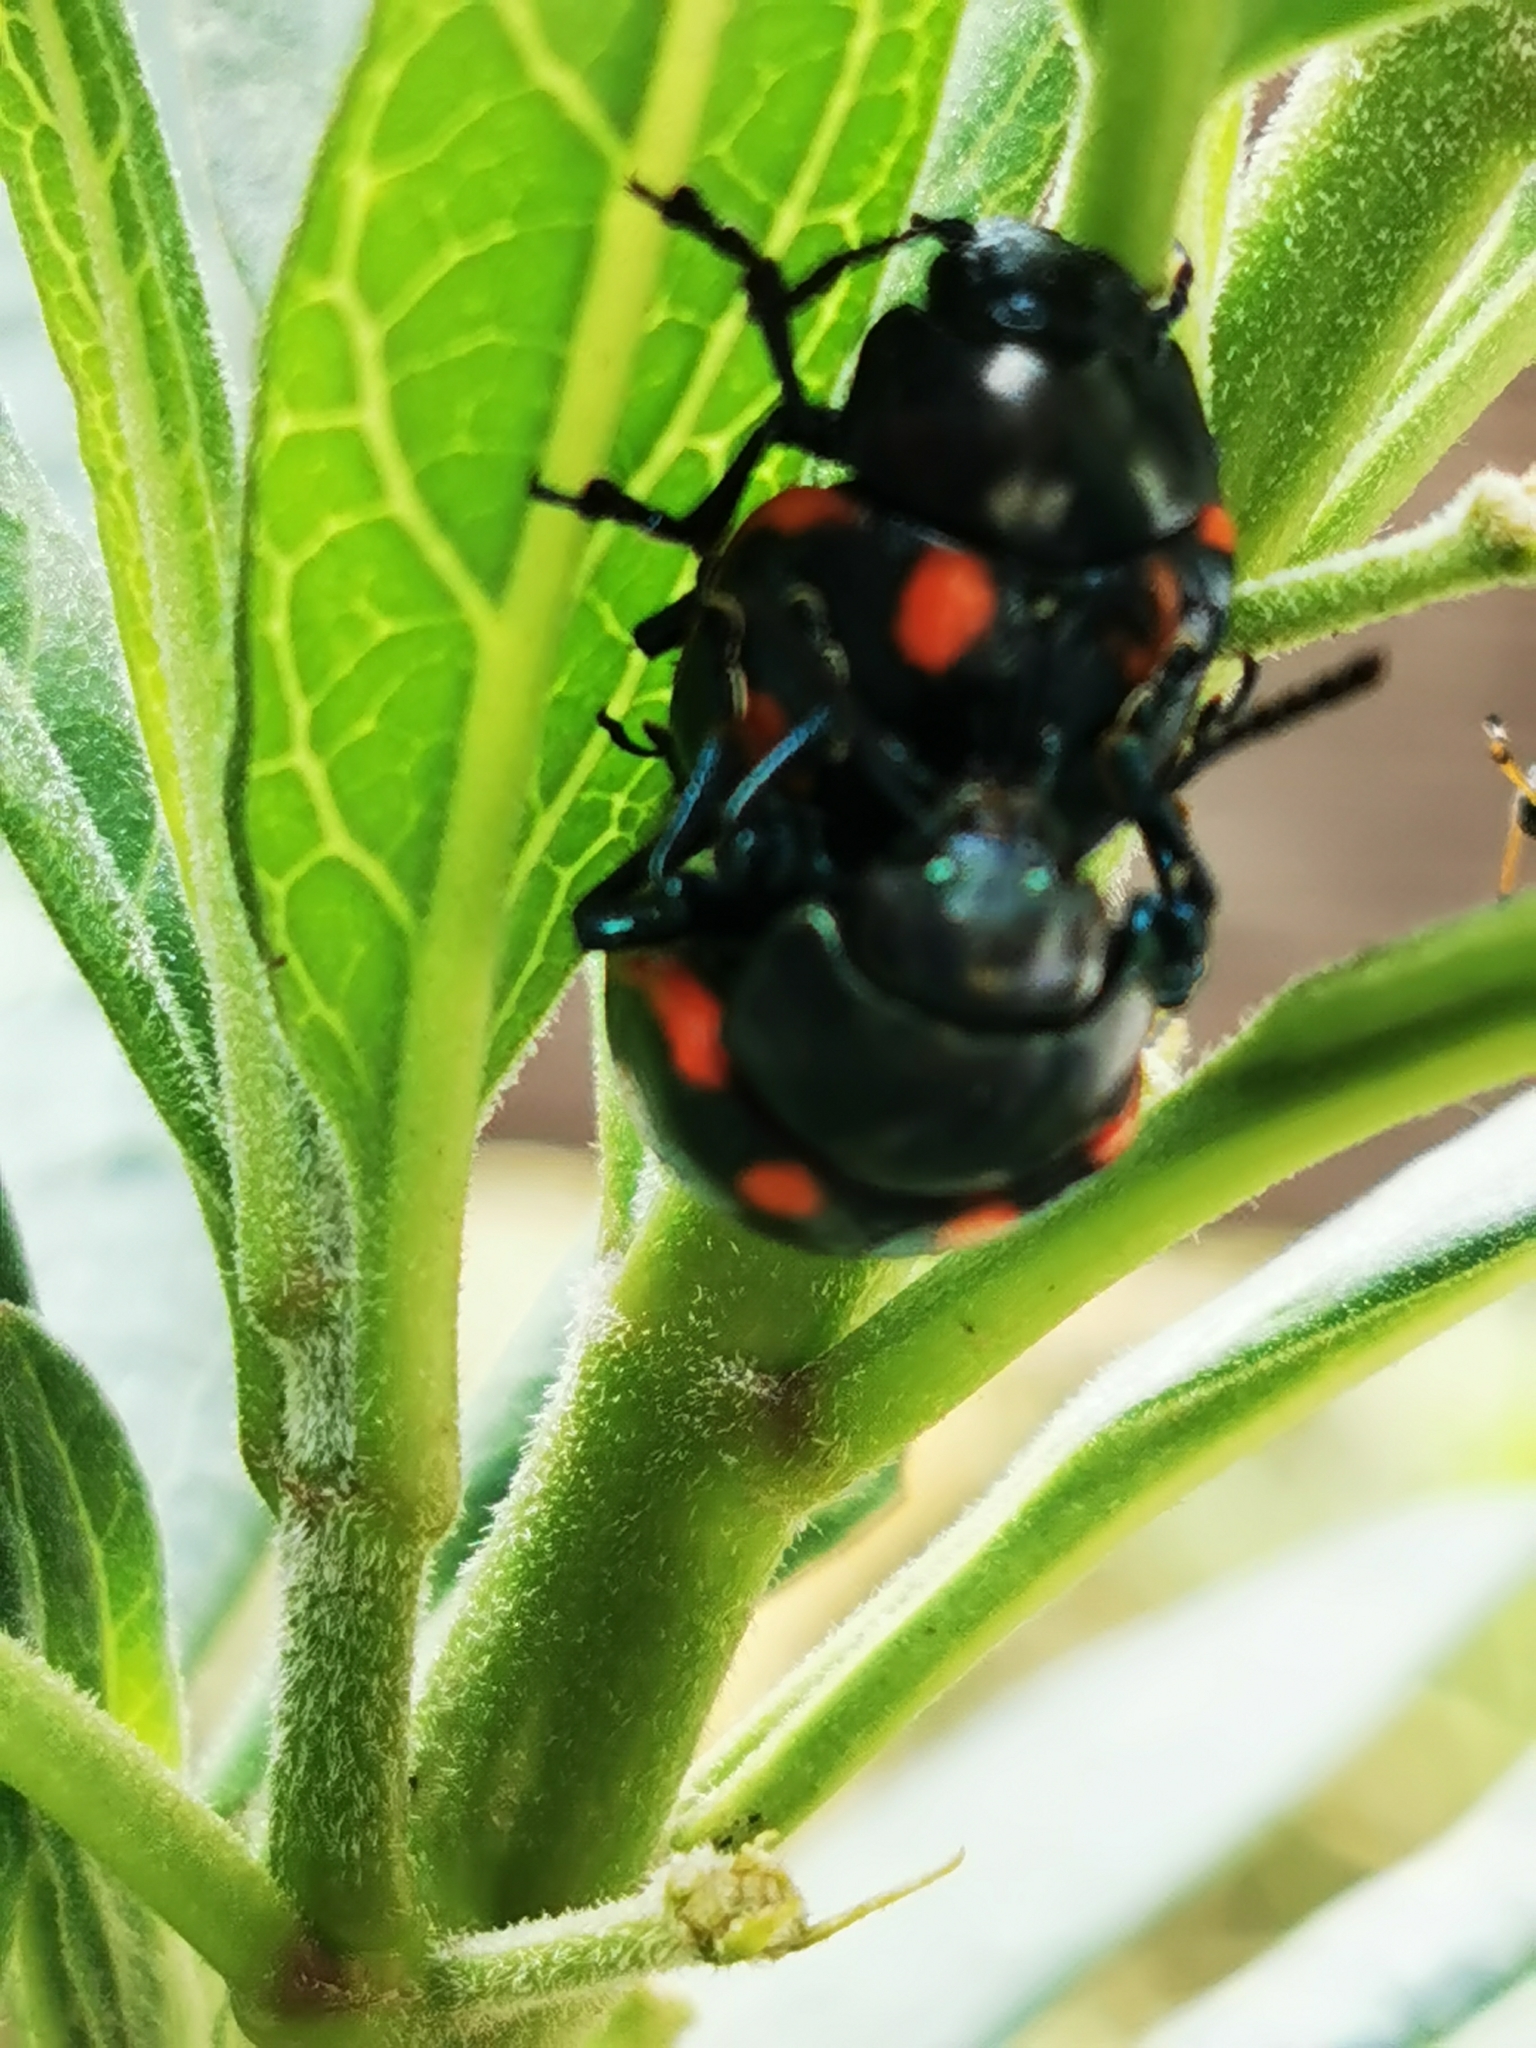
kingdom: Animalia
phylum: Arthropoda
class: Insecta
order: Coleoptera
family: Chrysomelidae
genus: Labidomera
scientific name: Labidomera
